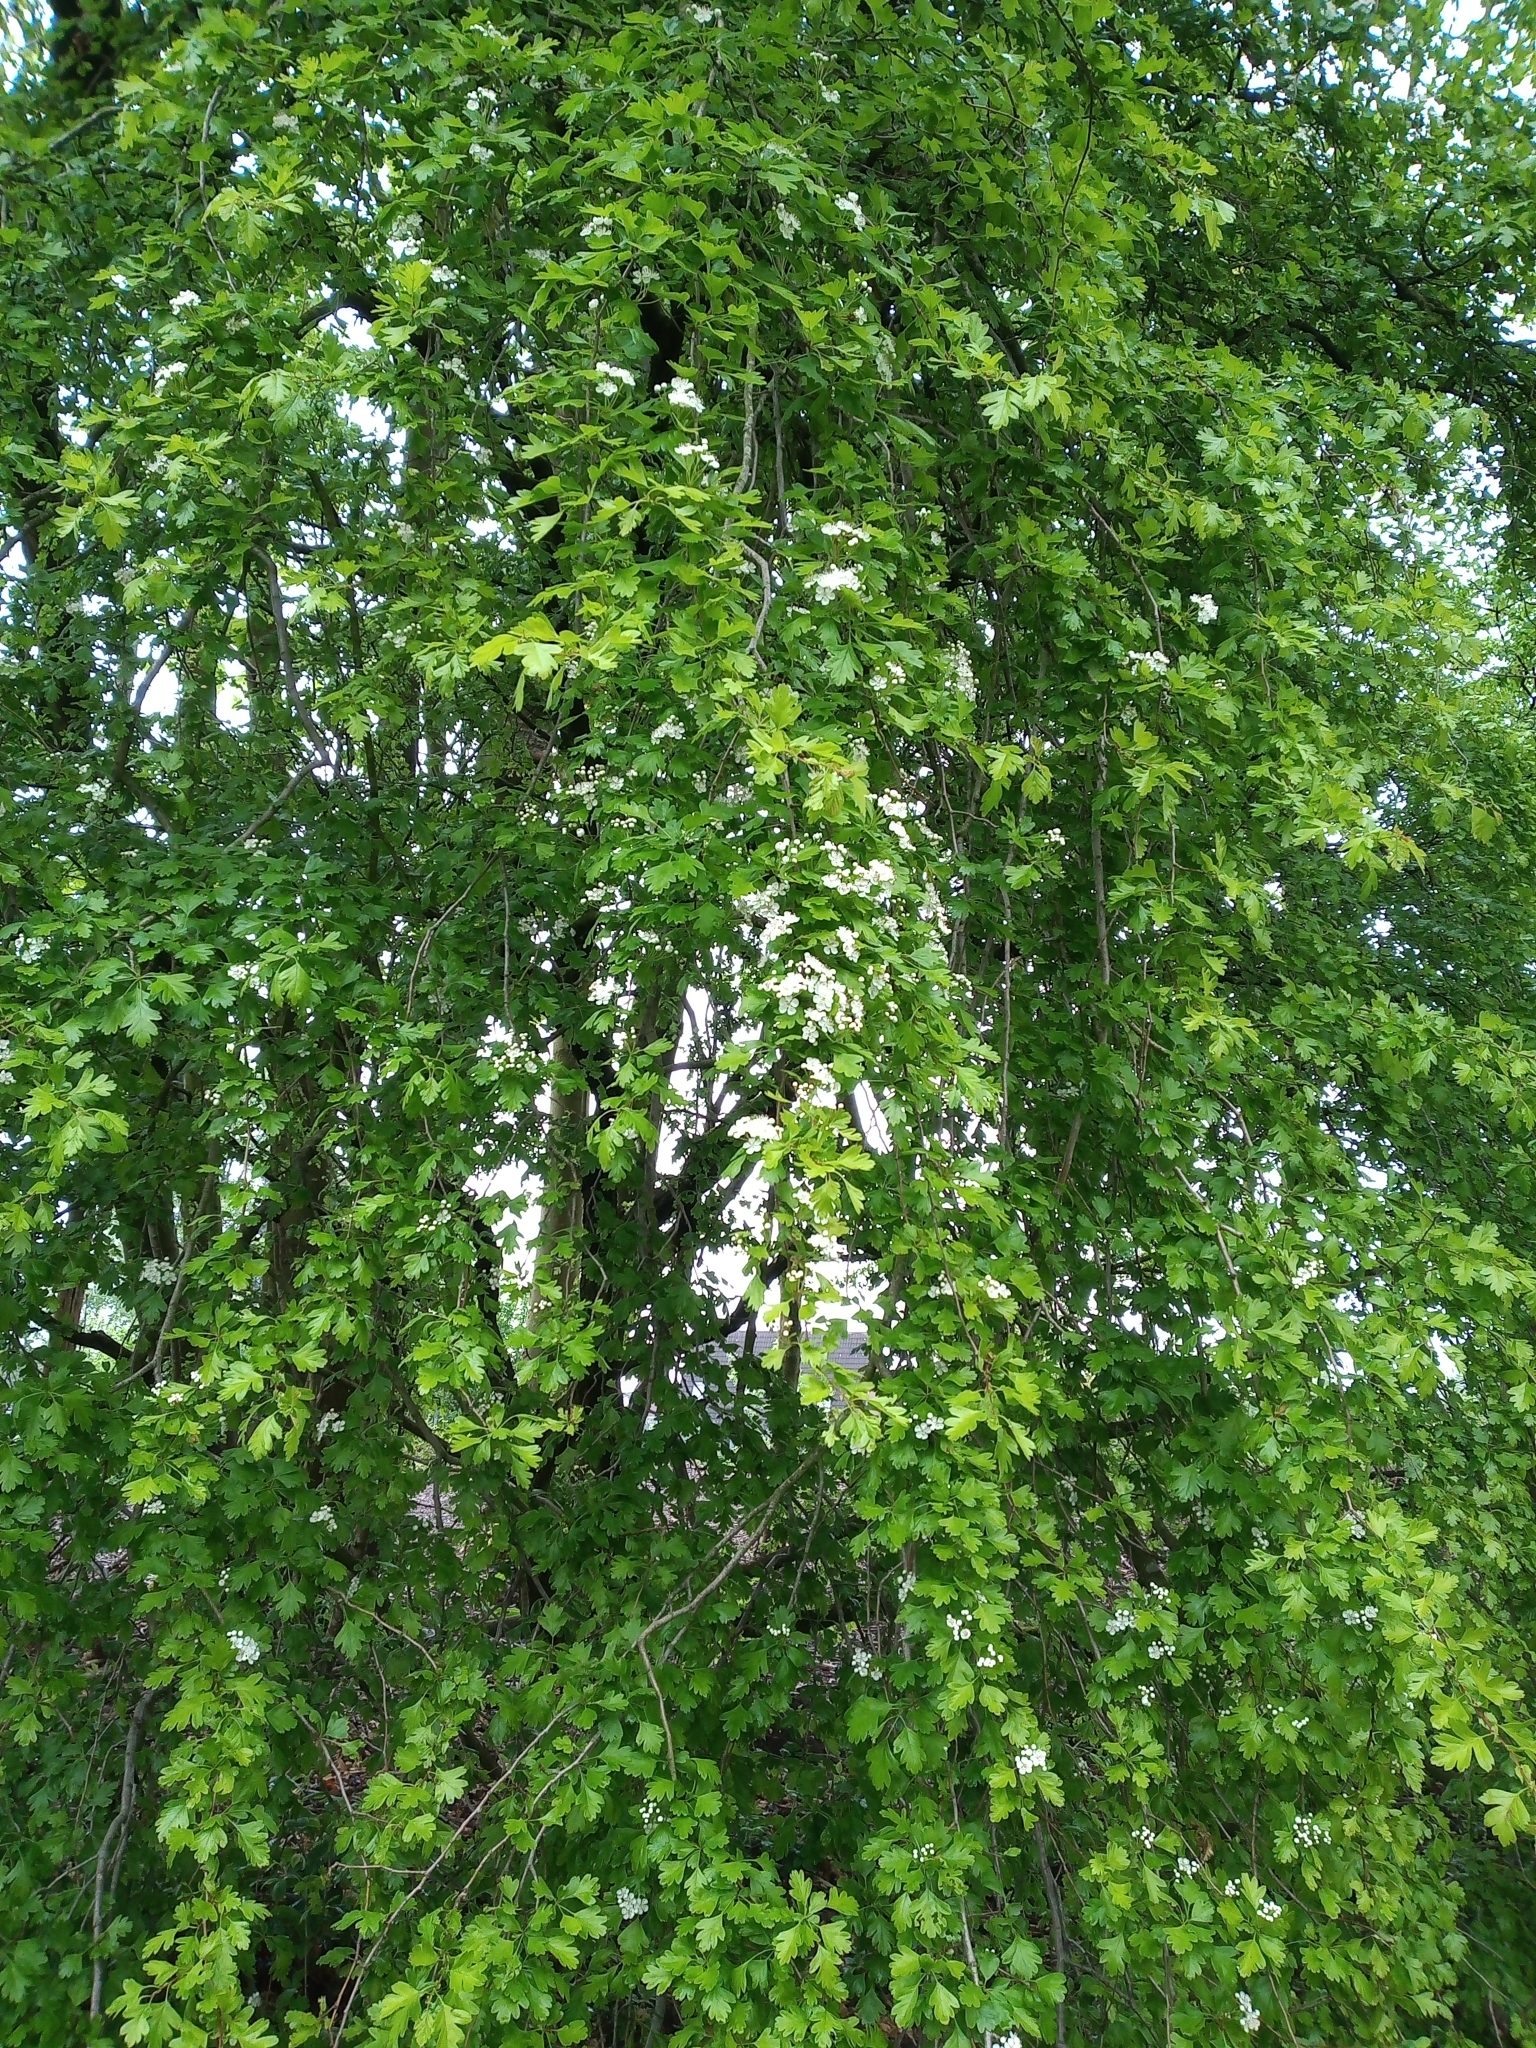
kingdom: Plantae
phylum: Tracheophyta
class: Magnoliopsida
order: Rosales
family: Rosaceae
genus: Crataegus
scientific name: Crataegus monogyna
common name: Hawthorn
